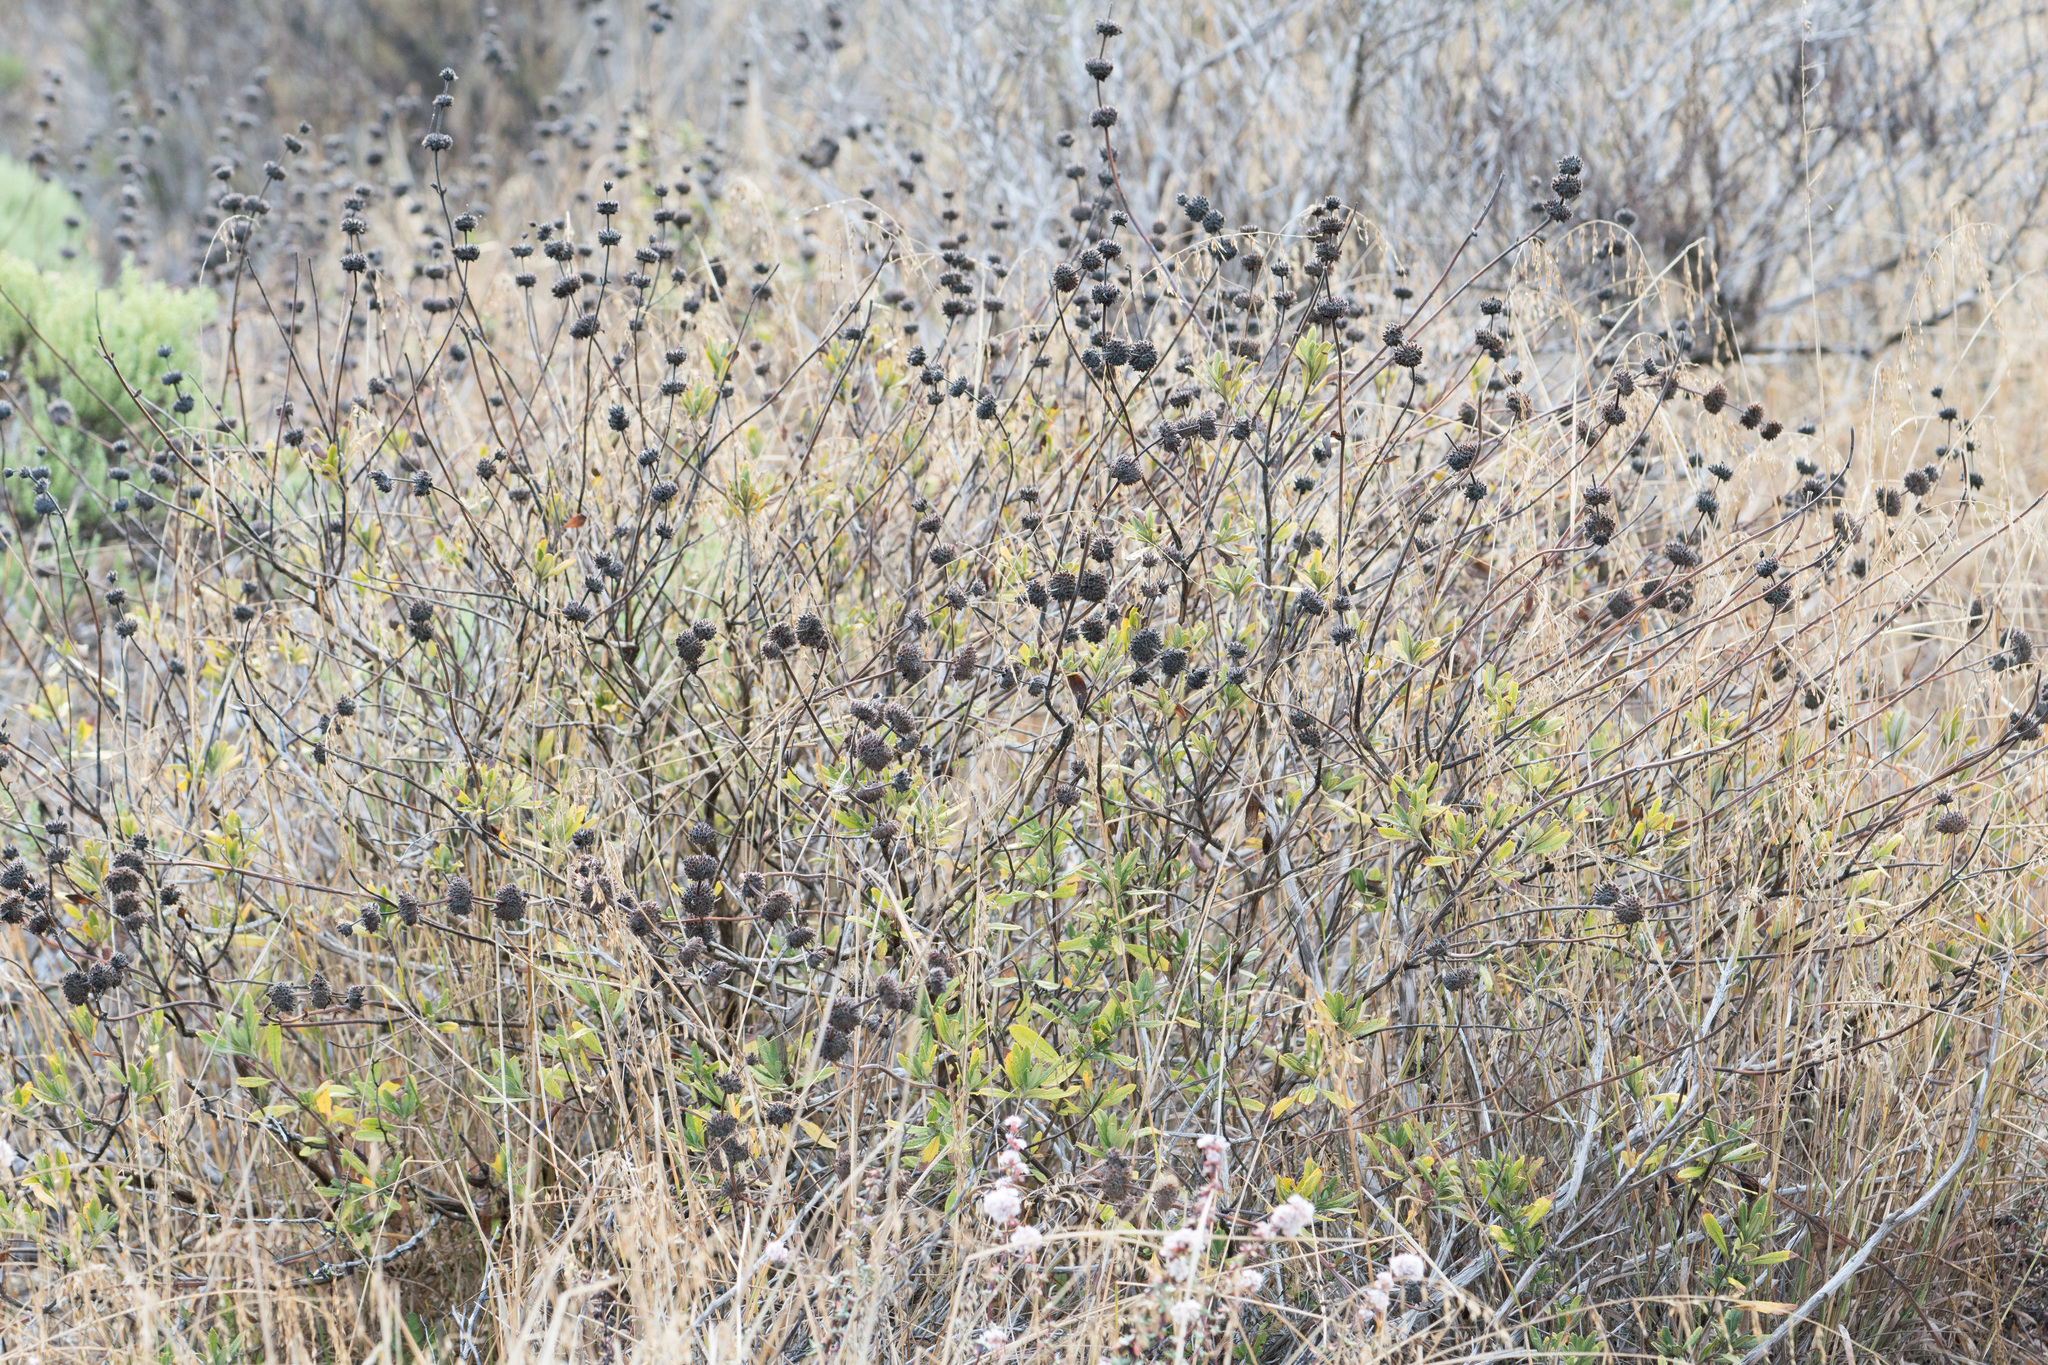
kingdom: Plantae
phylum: Tracheophyta
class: Magnoliopsida
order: Lamiales
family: Lamiaceae
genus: Salvia
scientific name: Salvia mellifera
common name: Black sage
